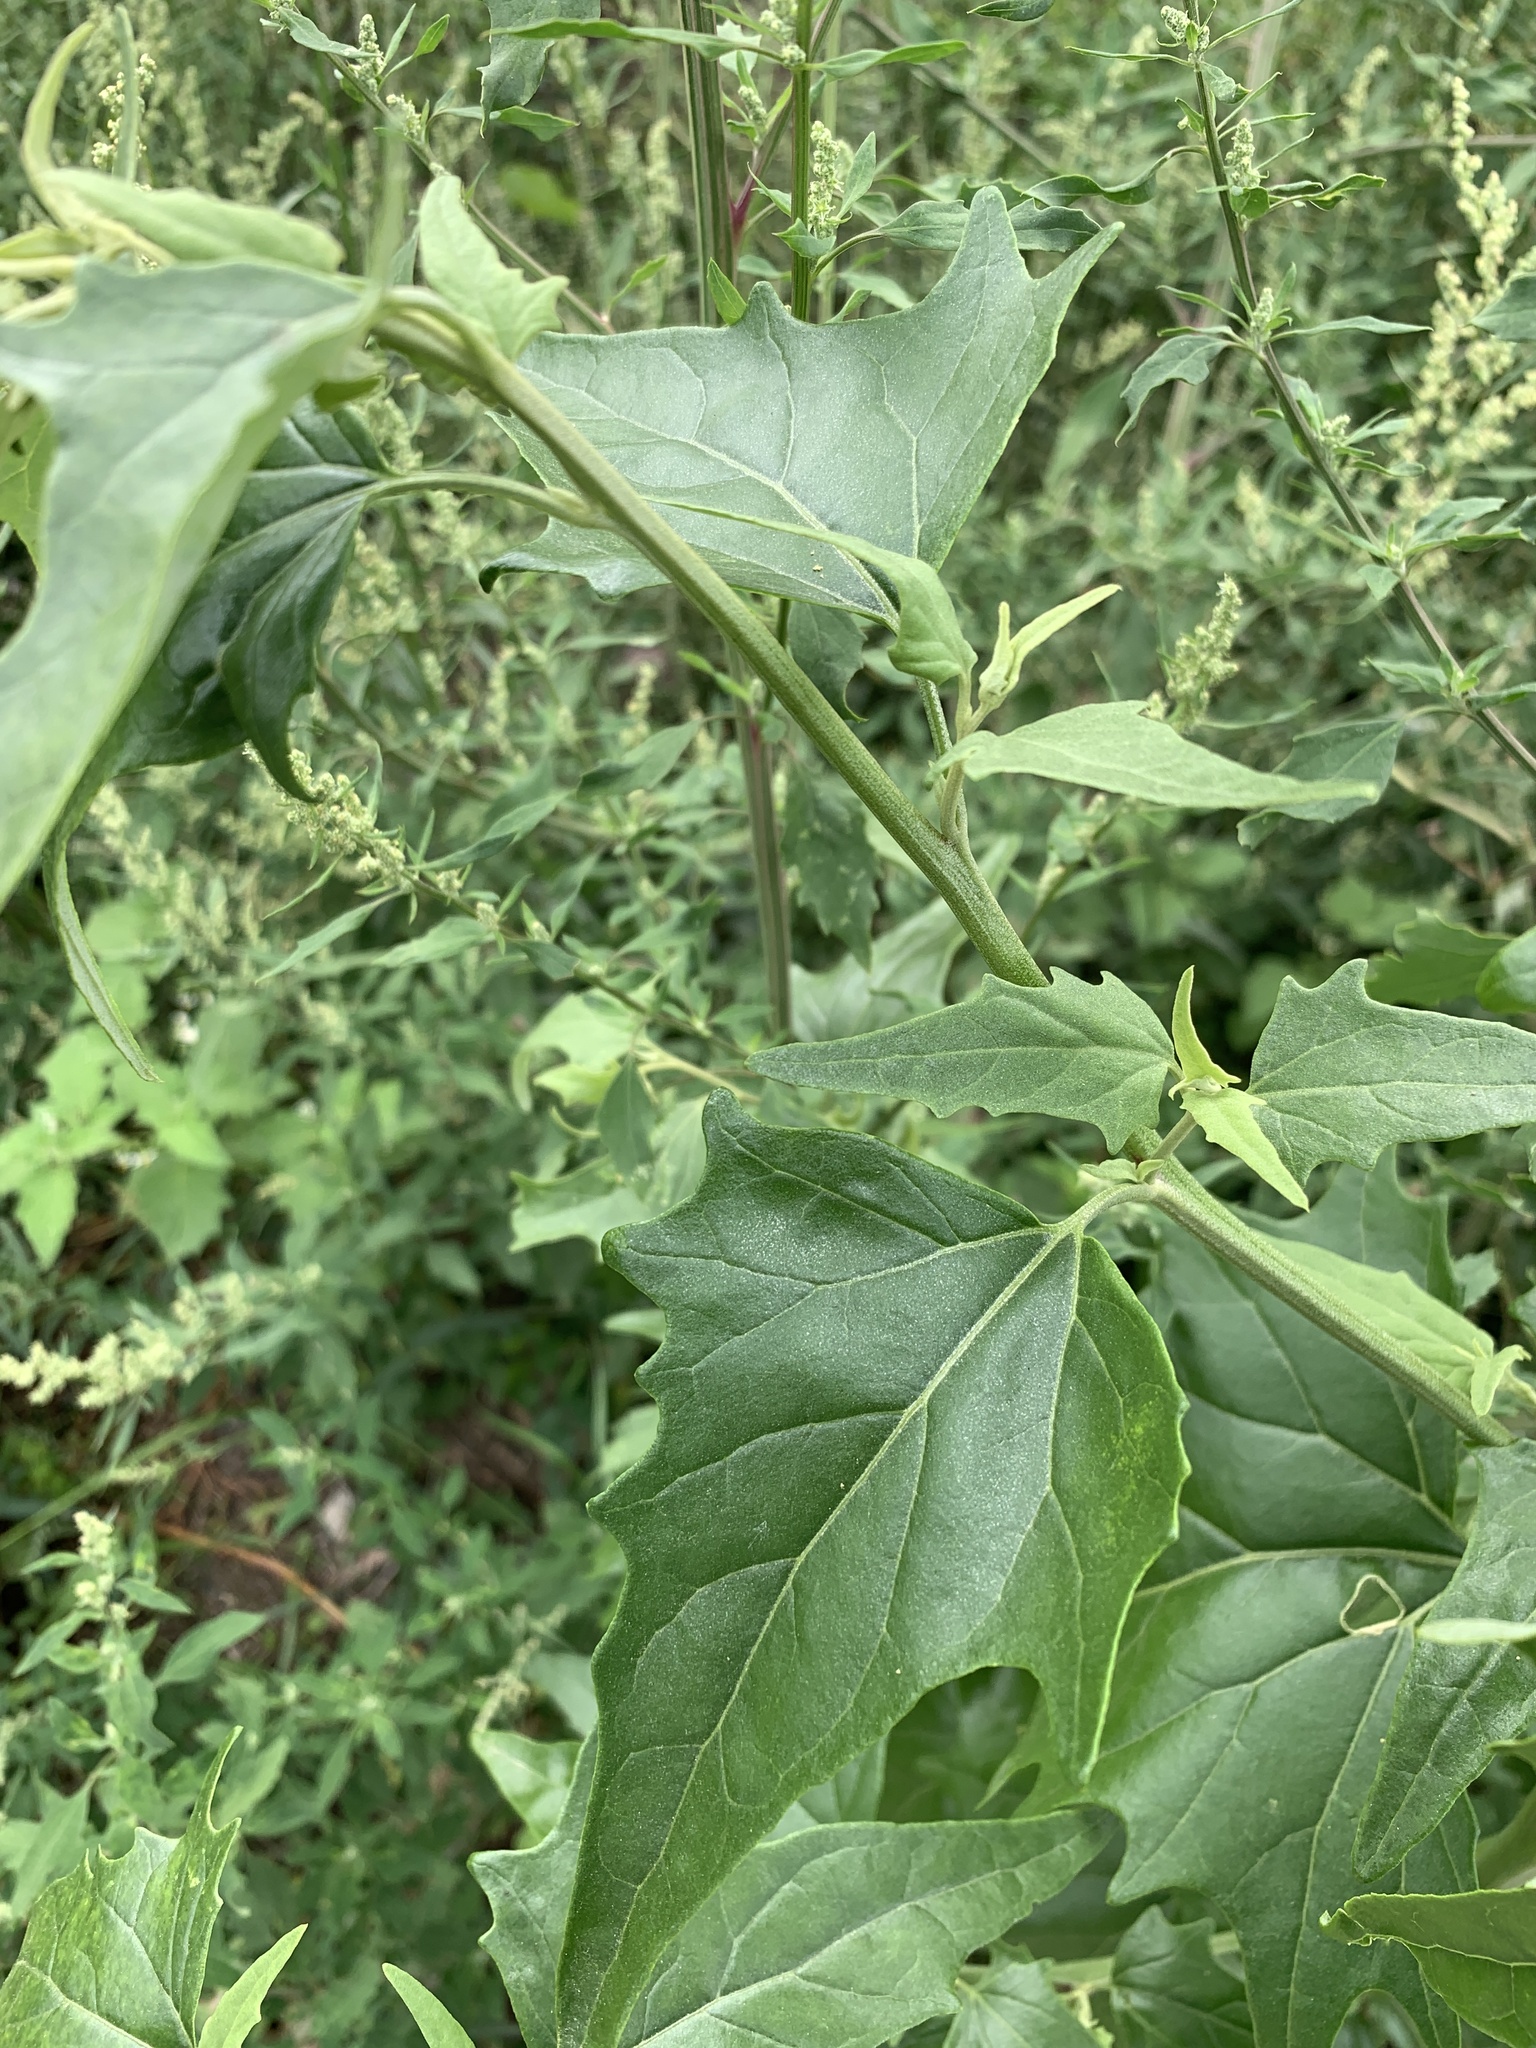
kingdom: Plantae
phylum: Tracheophyta
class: Magnoliopsida
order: Caryophyllales
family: Amaranthaceae
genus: Atriplex
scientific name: Atriplex sagittata
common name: Purple orache
